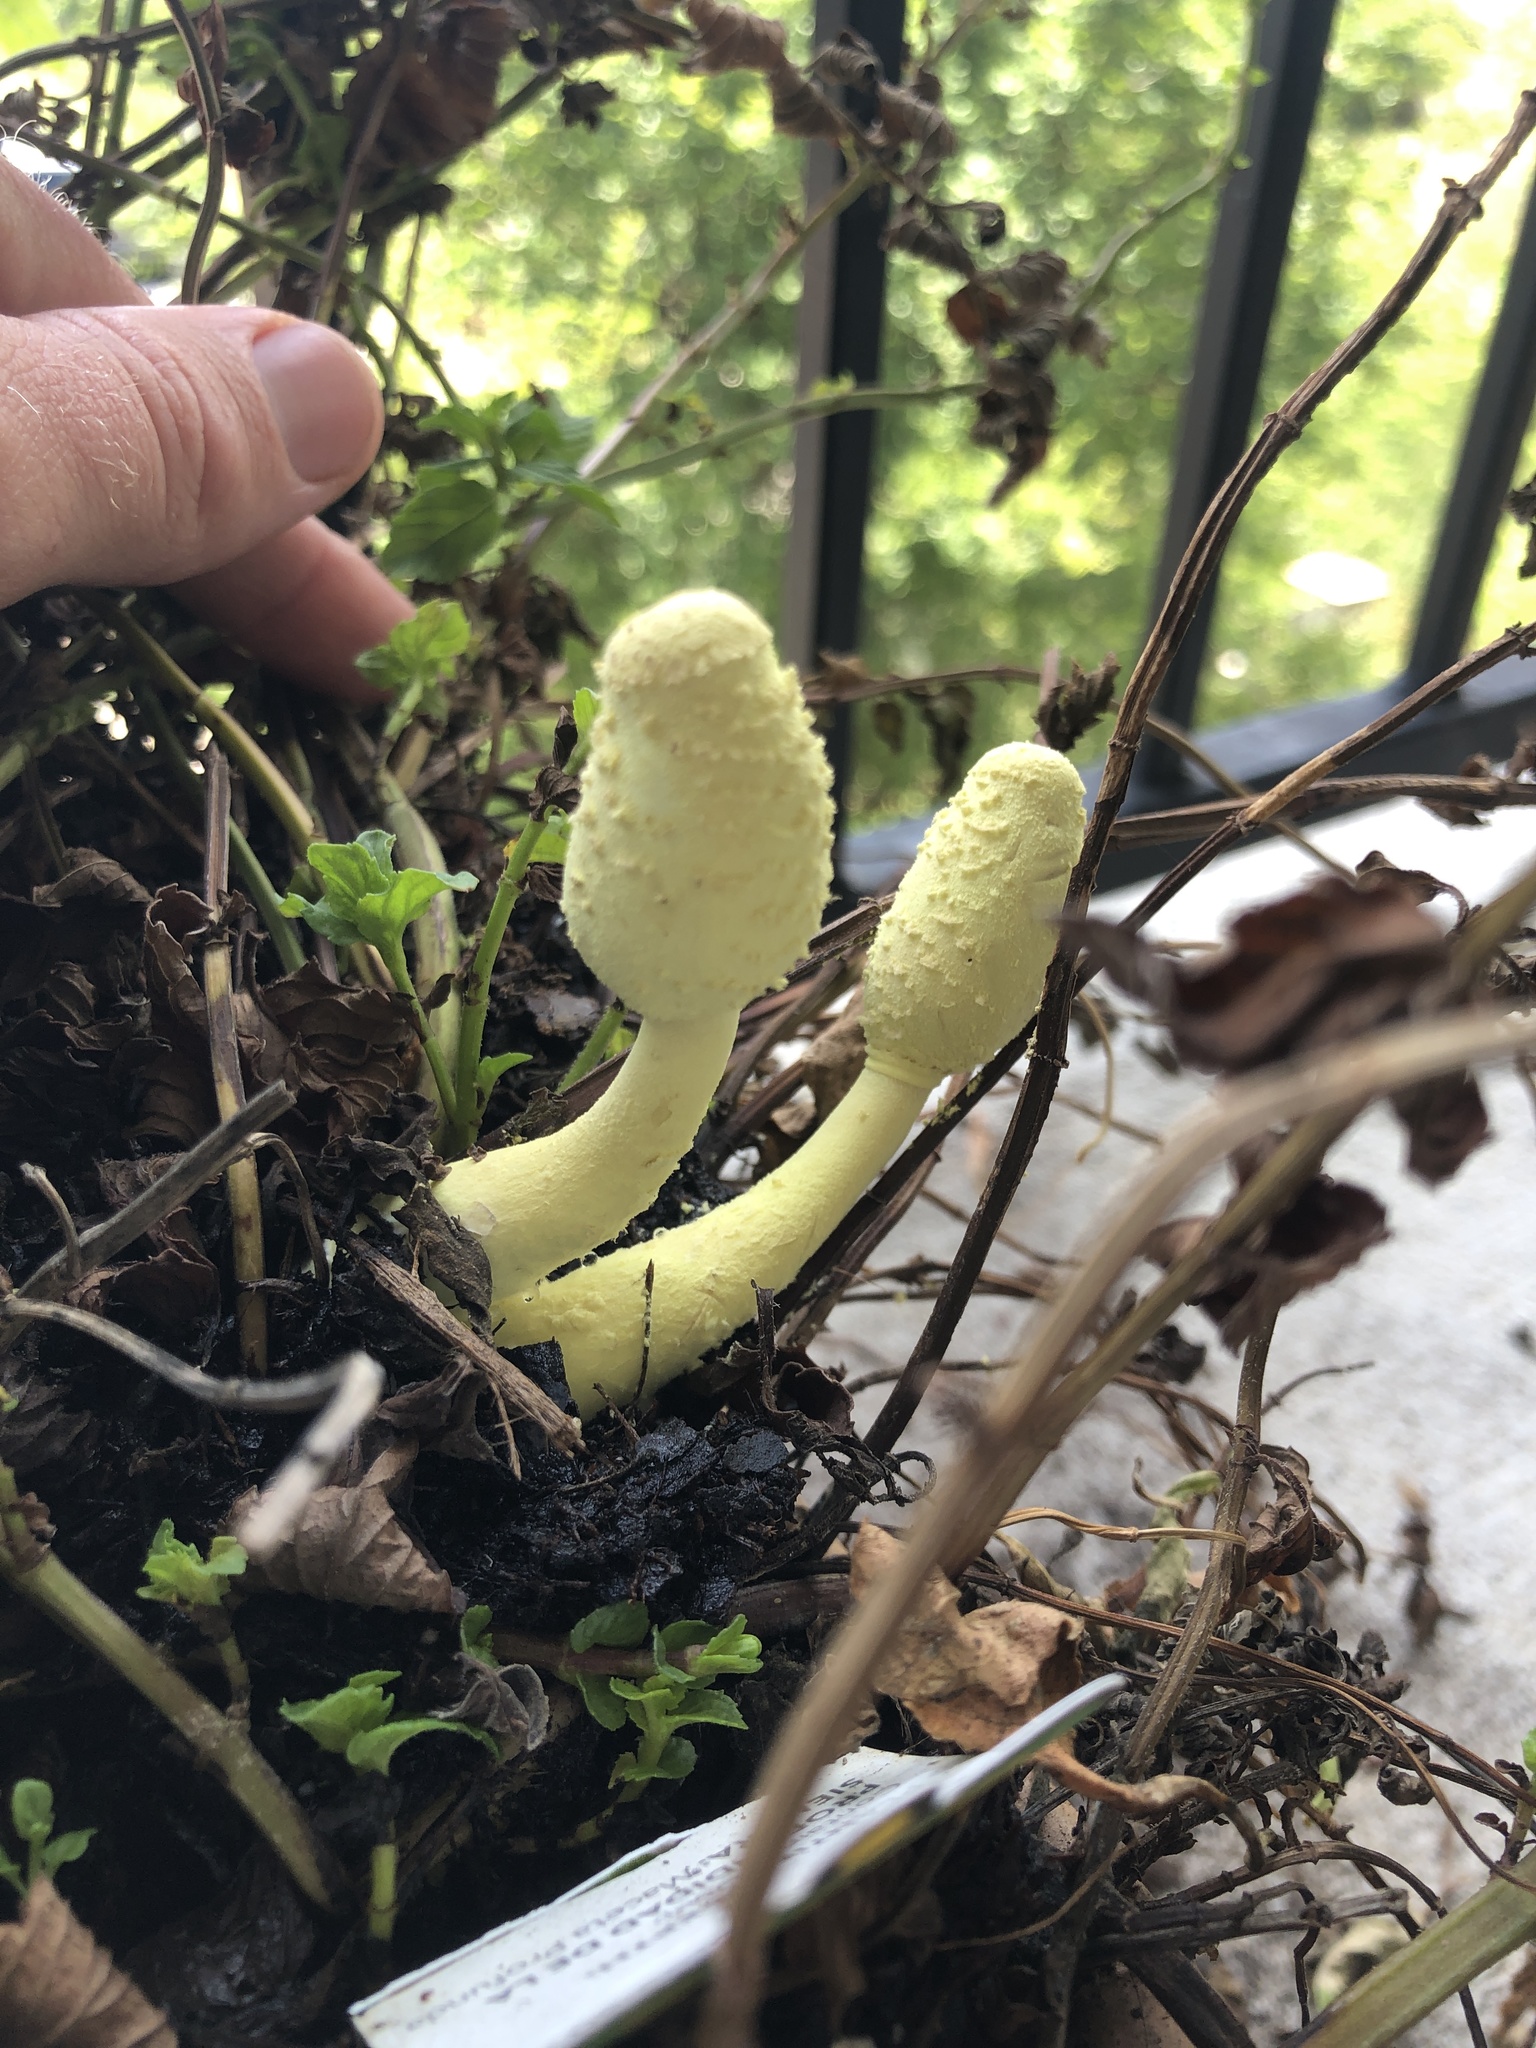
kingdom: Fungi
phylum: Basidiomycota
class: Agaricomycetes
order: Agaricales
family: Agaricaceae
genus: Leucocoprinus
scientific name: Leucocoprinus birnbaumii
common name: Plantpot dapperling
